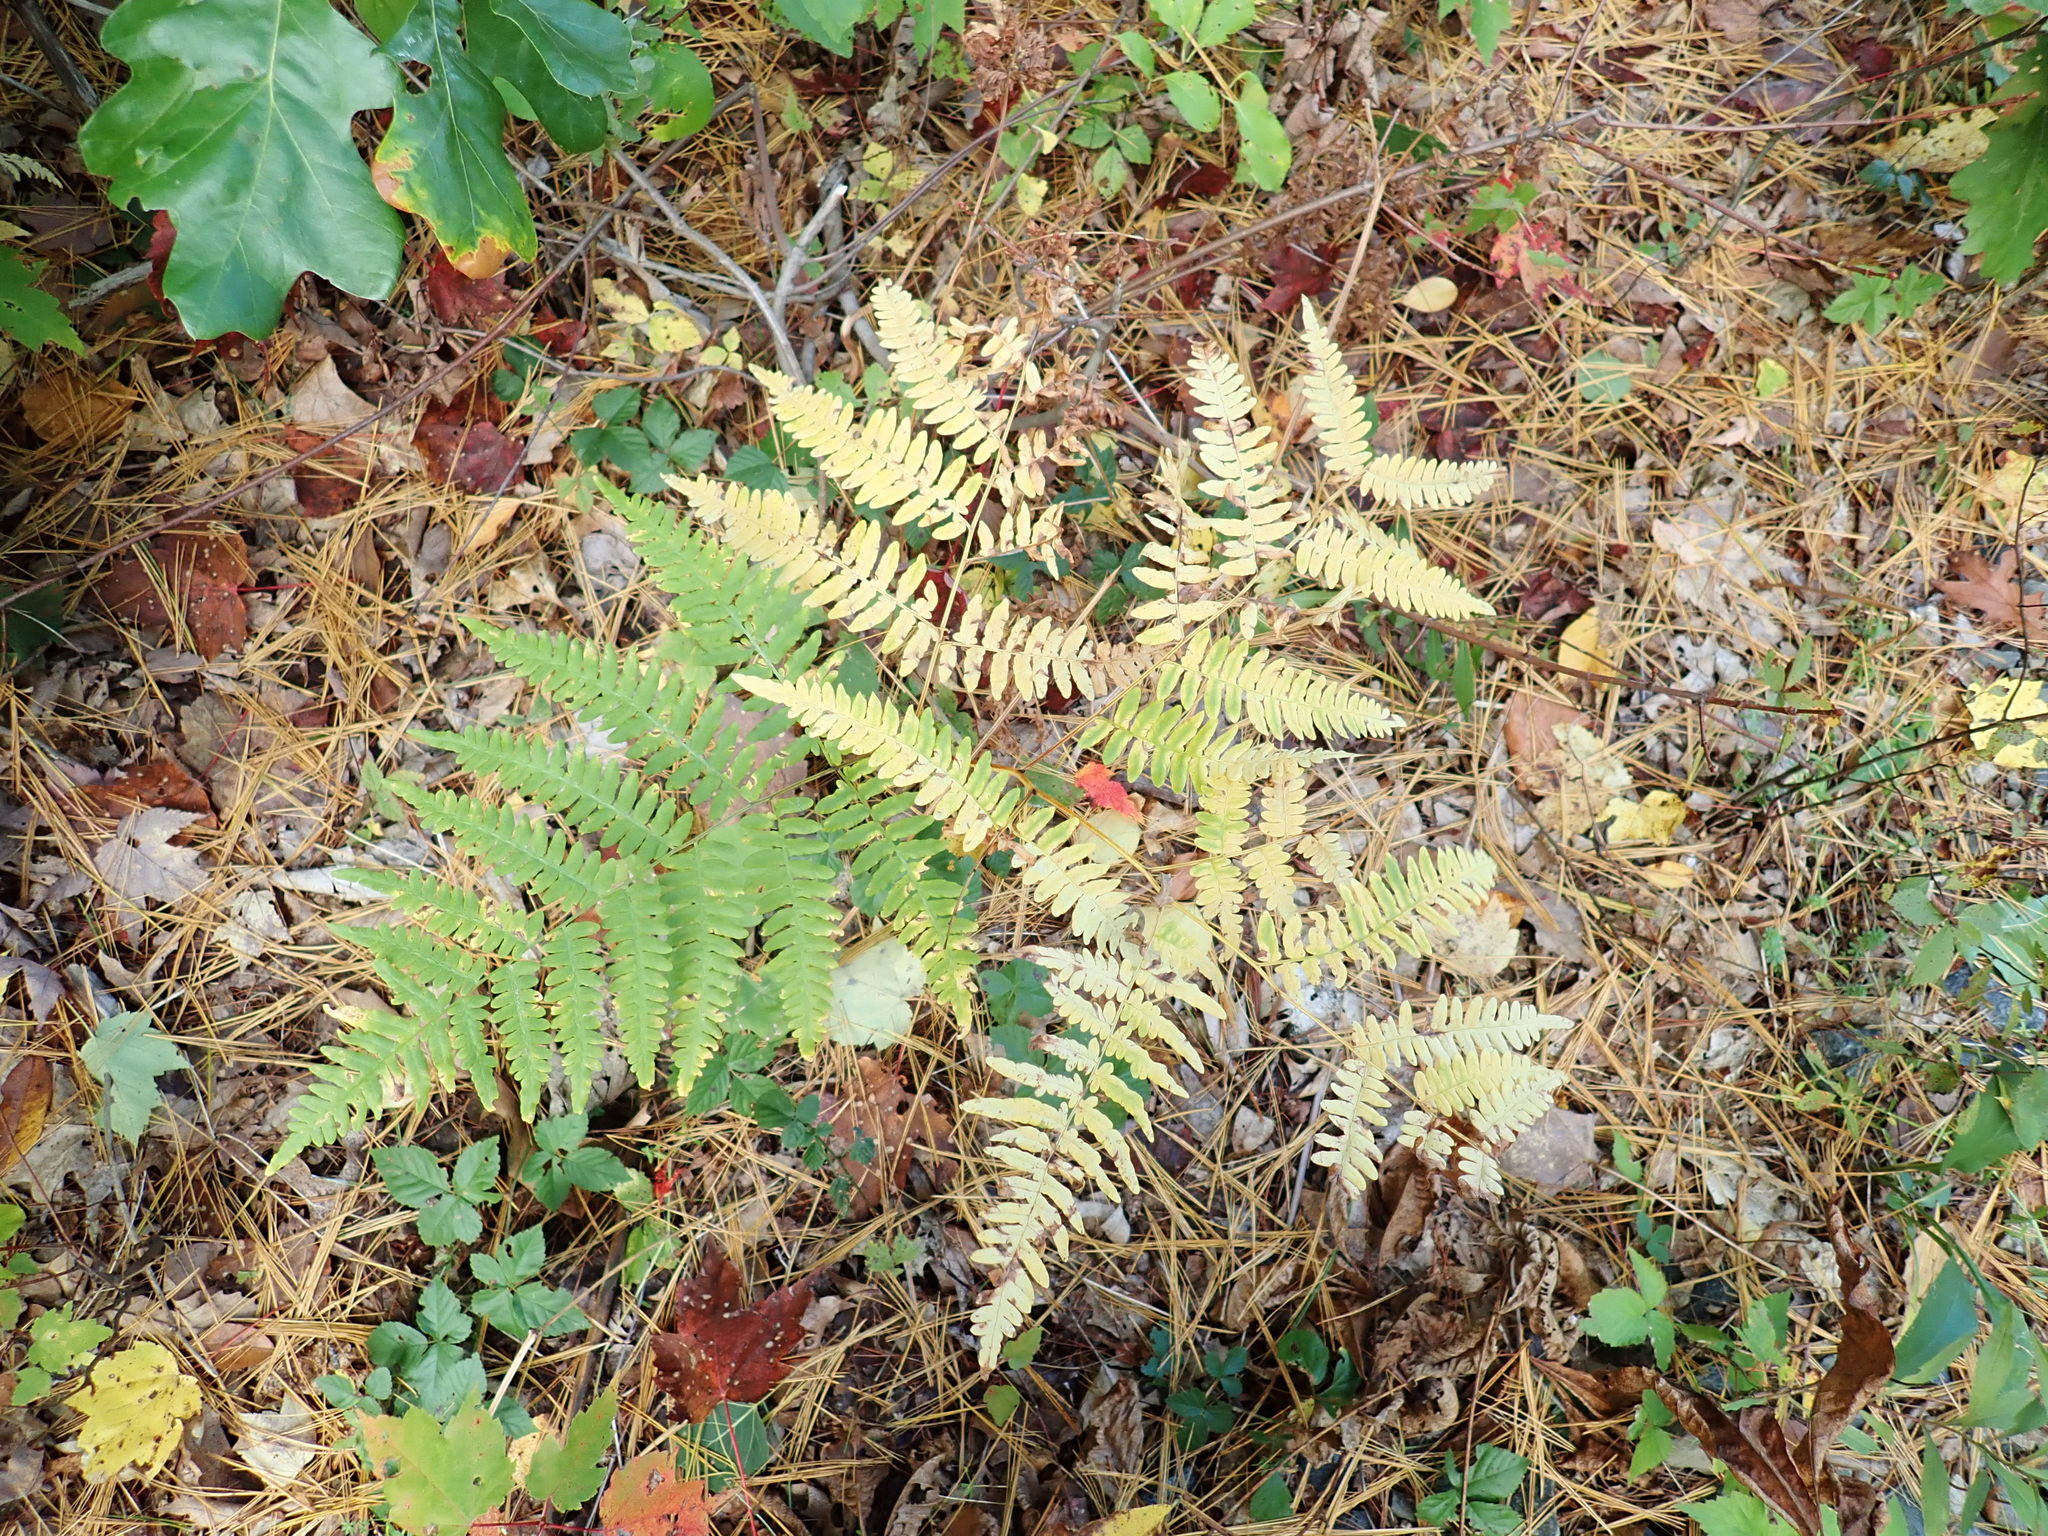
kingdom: Plantae
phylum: Tracheophyta
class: Polypodiopsida
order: Polypodiales
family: Dennstaedtiaceae
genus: Pteridium
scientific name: Pteridium aquilinum
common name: Bracken
